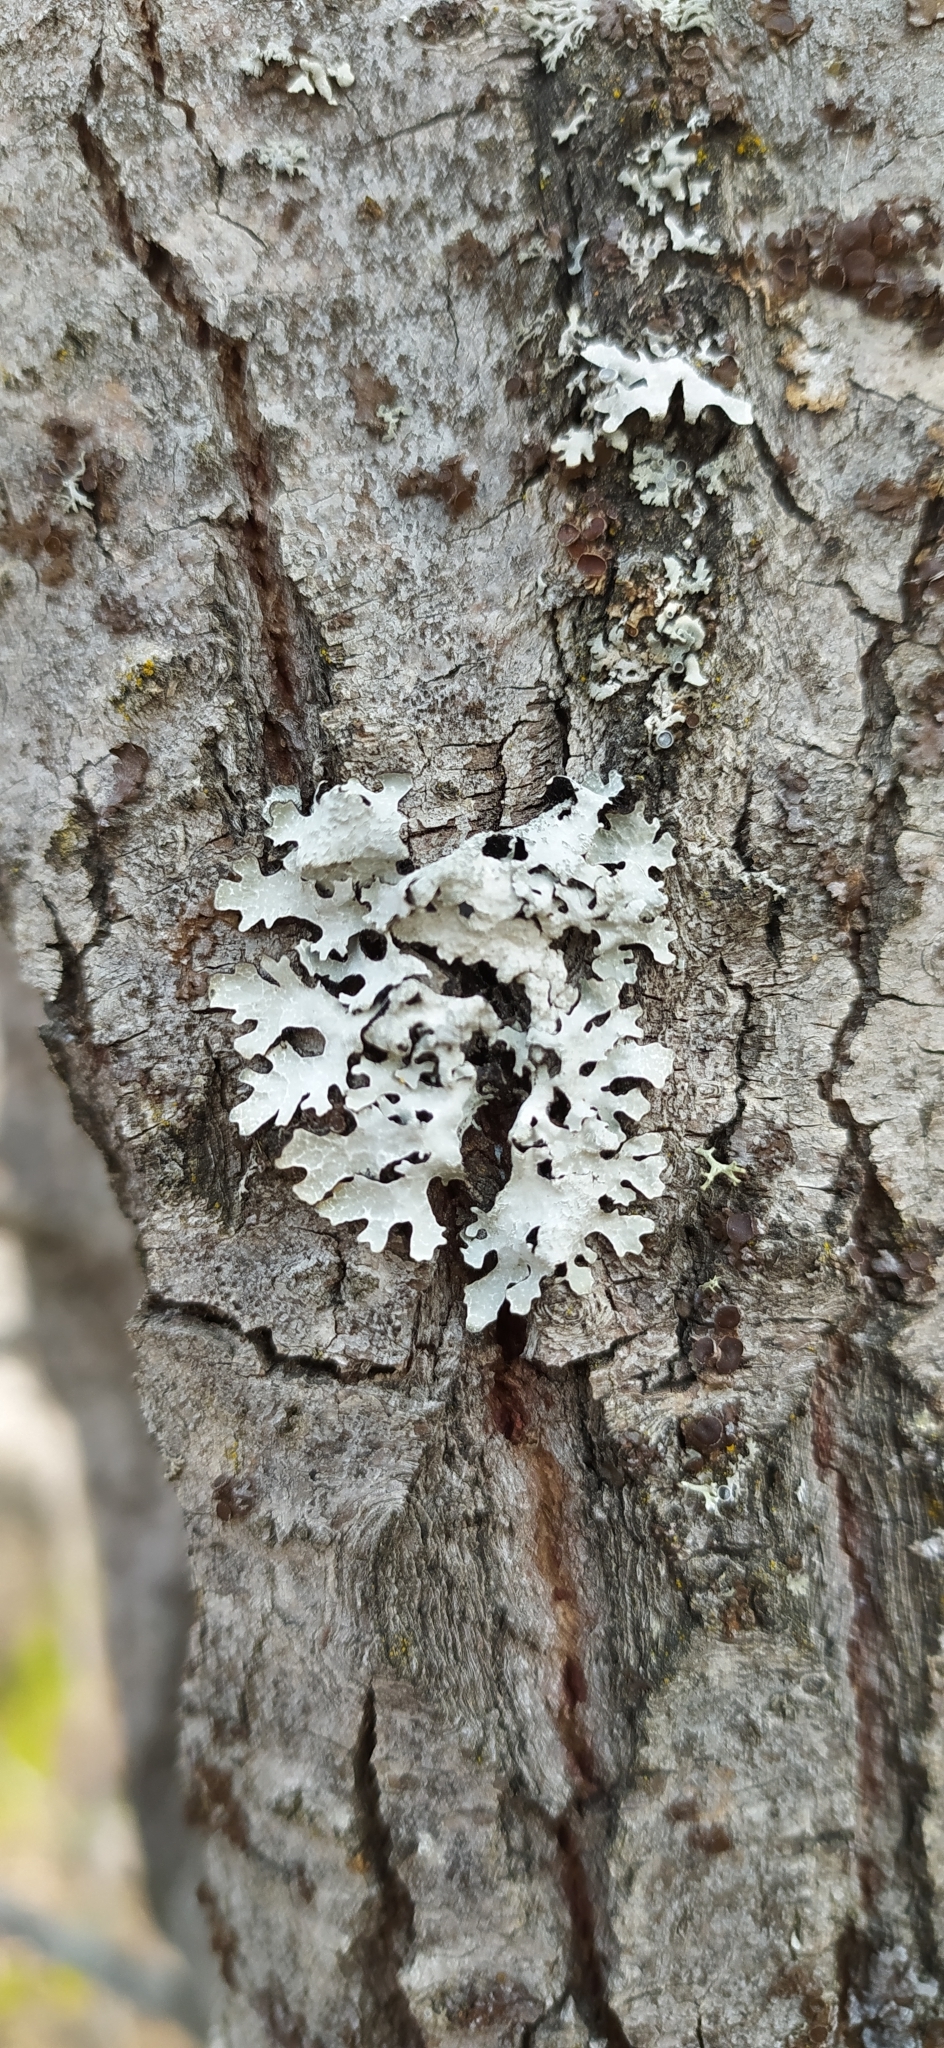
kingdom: Fungi
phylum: Ascomycota
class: Lecanoromycetes
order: Lecanorales
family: Parmeliaceae
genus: Parmelia
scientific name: Parmelia sulcata
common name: Netted shield lichen
